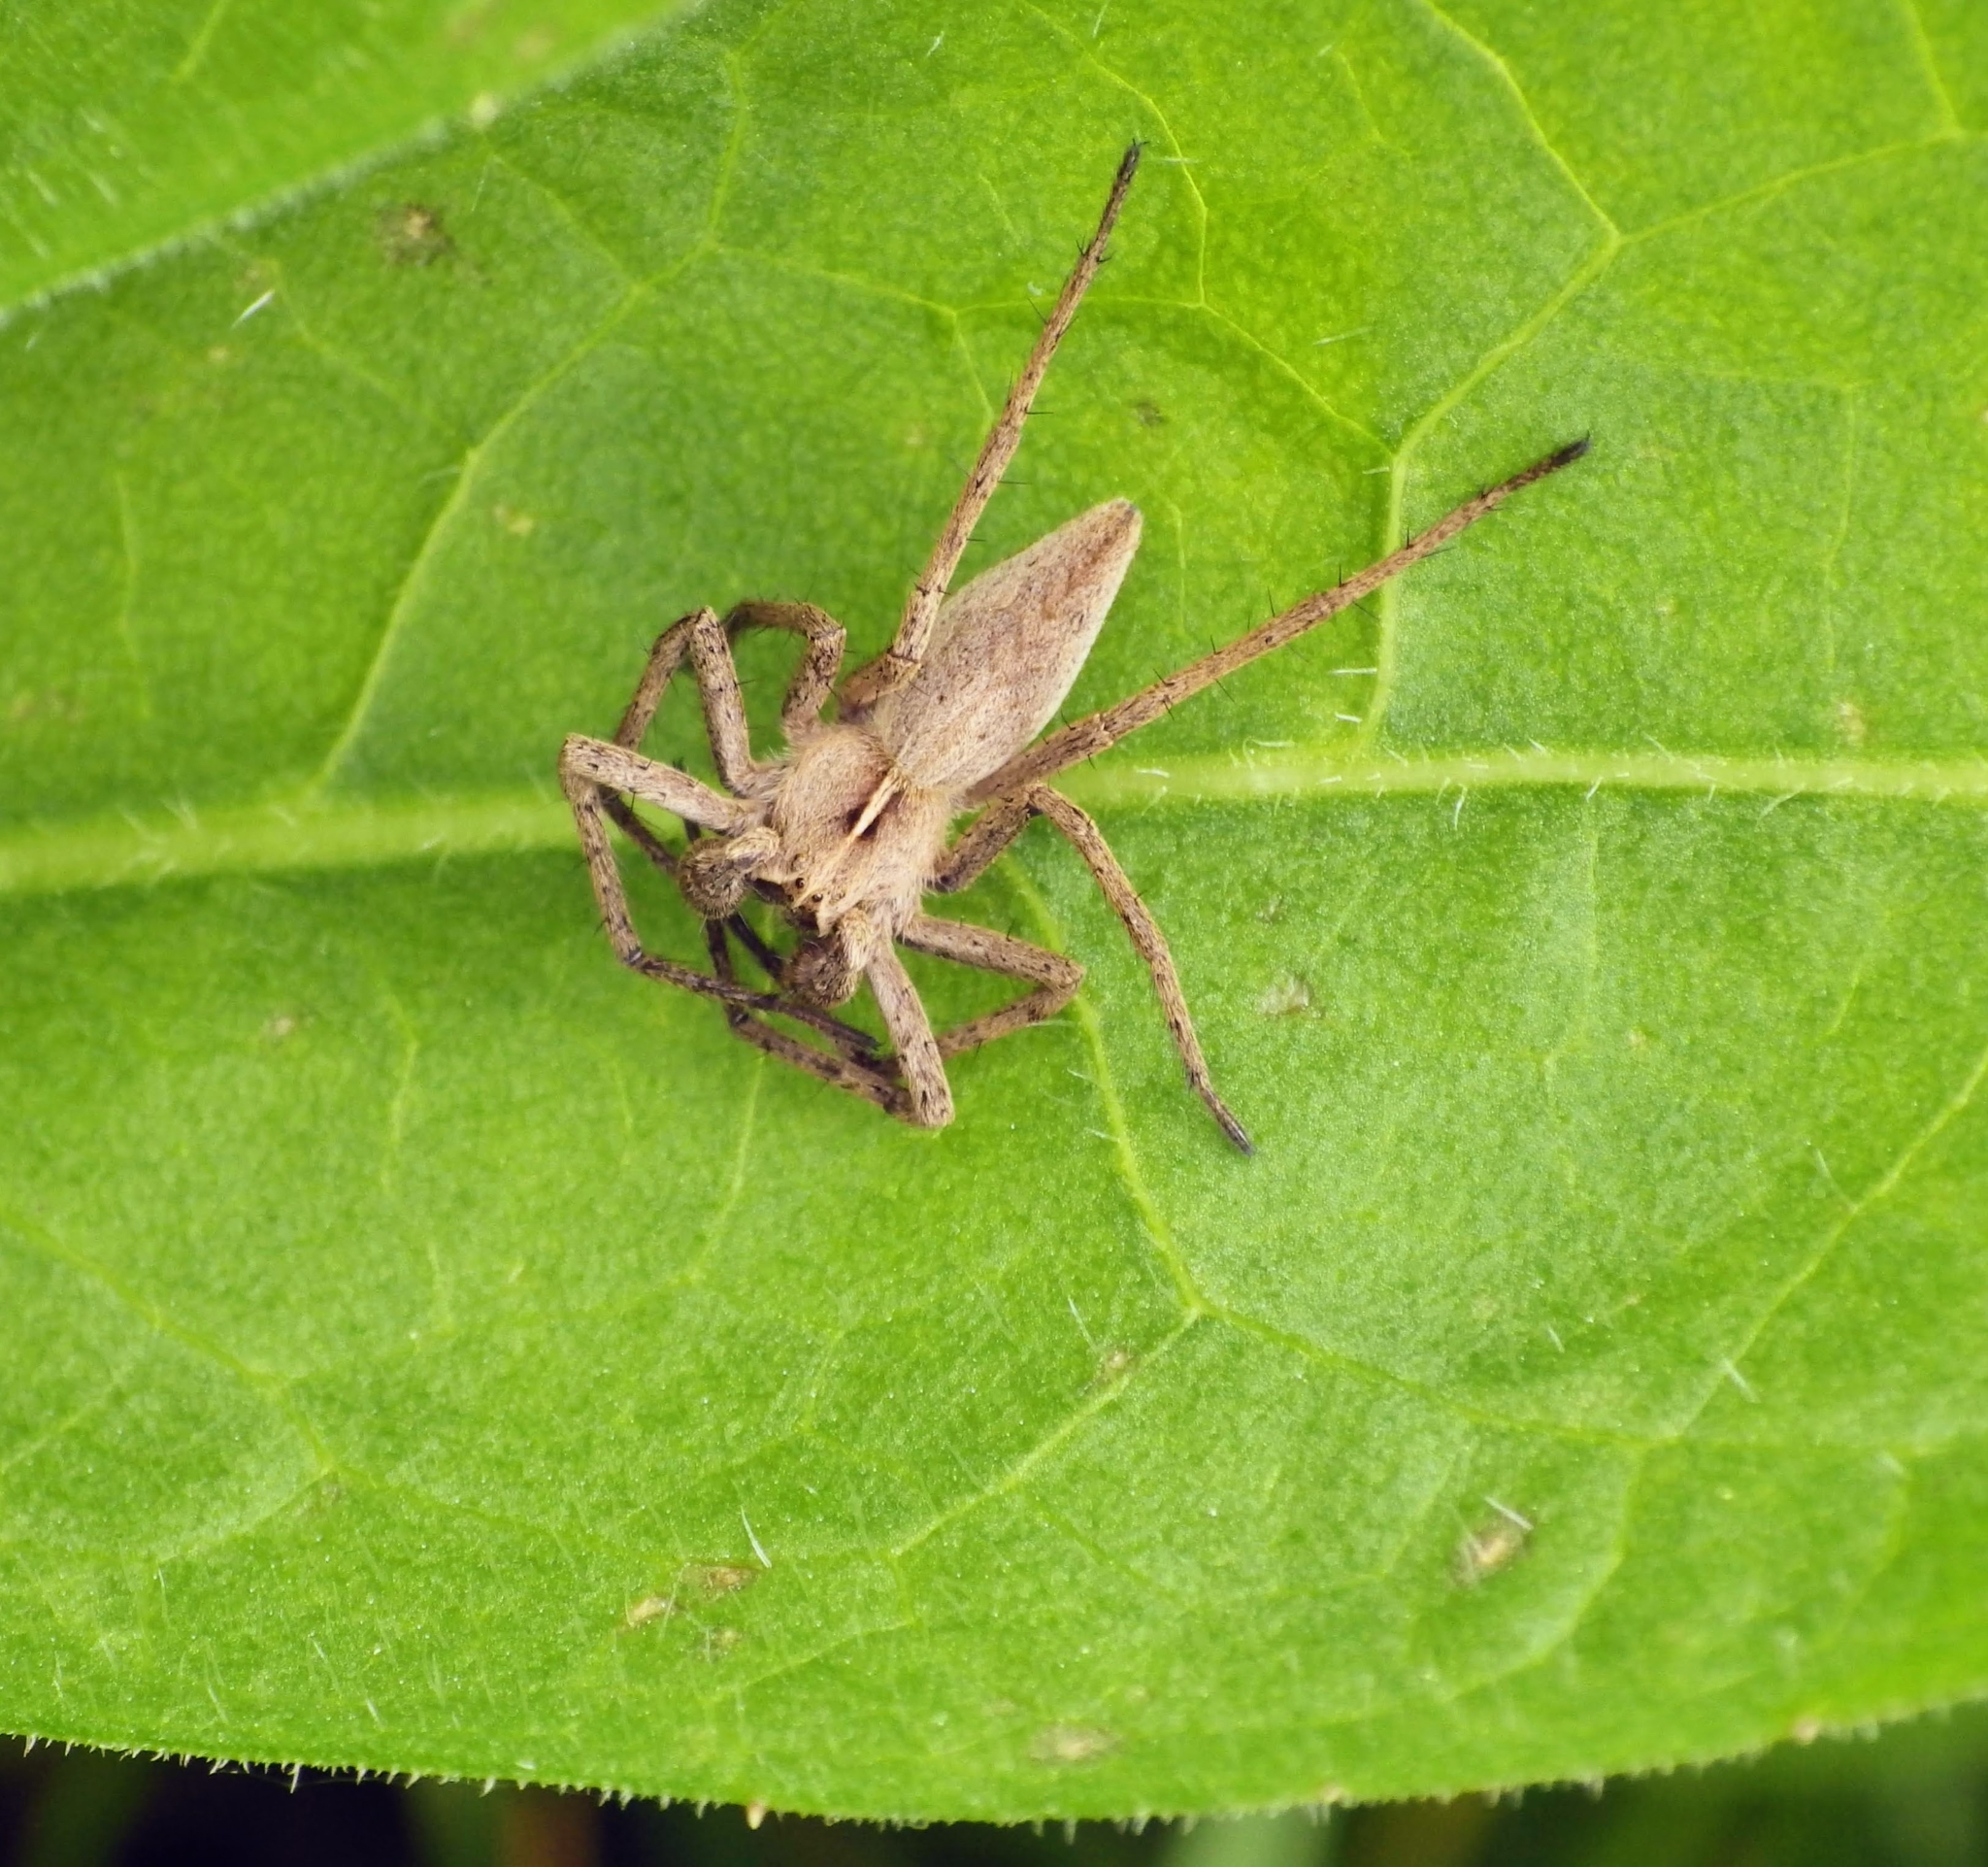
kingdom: Animalia
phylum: Arthropoda
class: Arachnida
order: Araneae
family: Pisauridae
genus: Pisaura
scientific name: Pisaura mirabilis
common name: Tent spider
